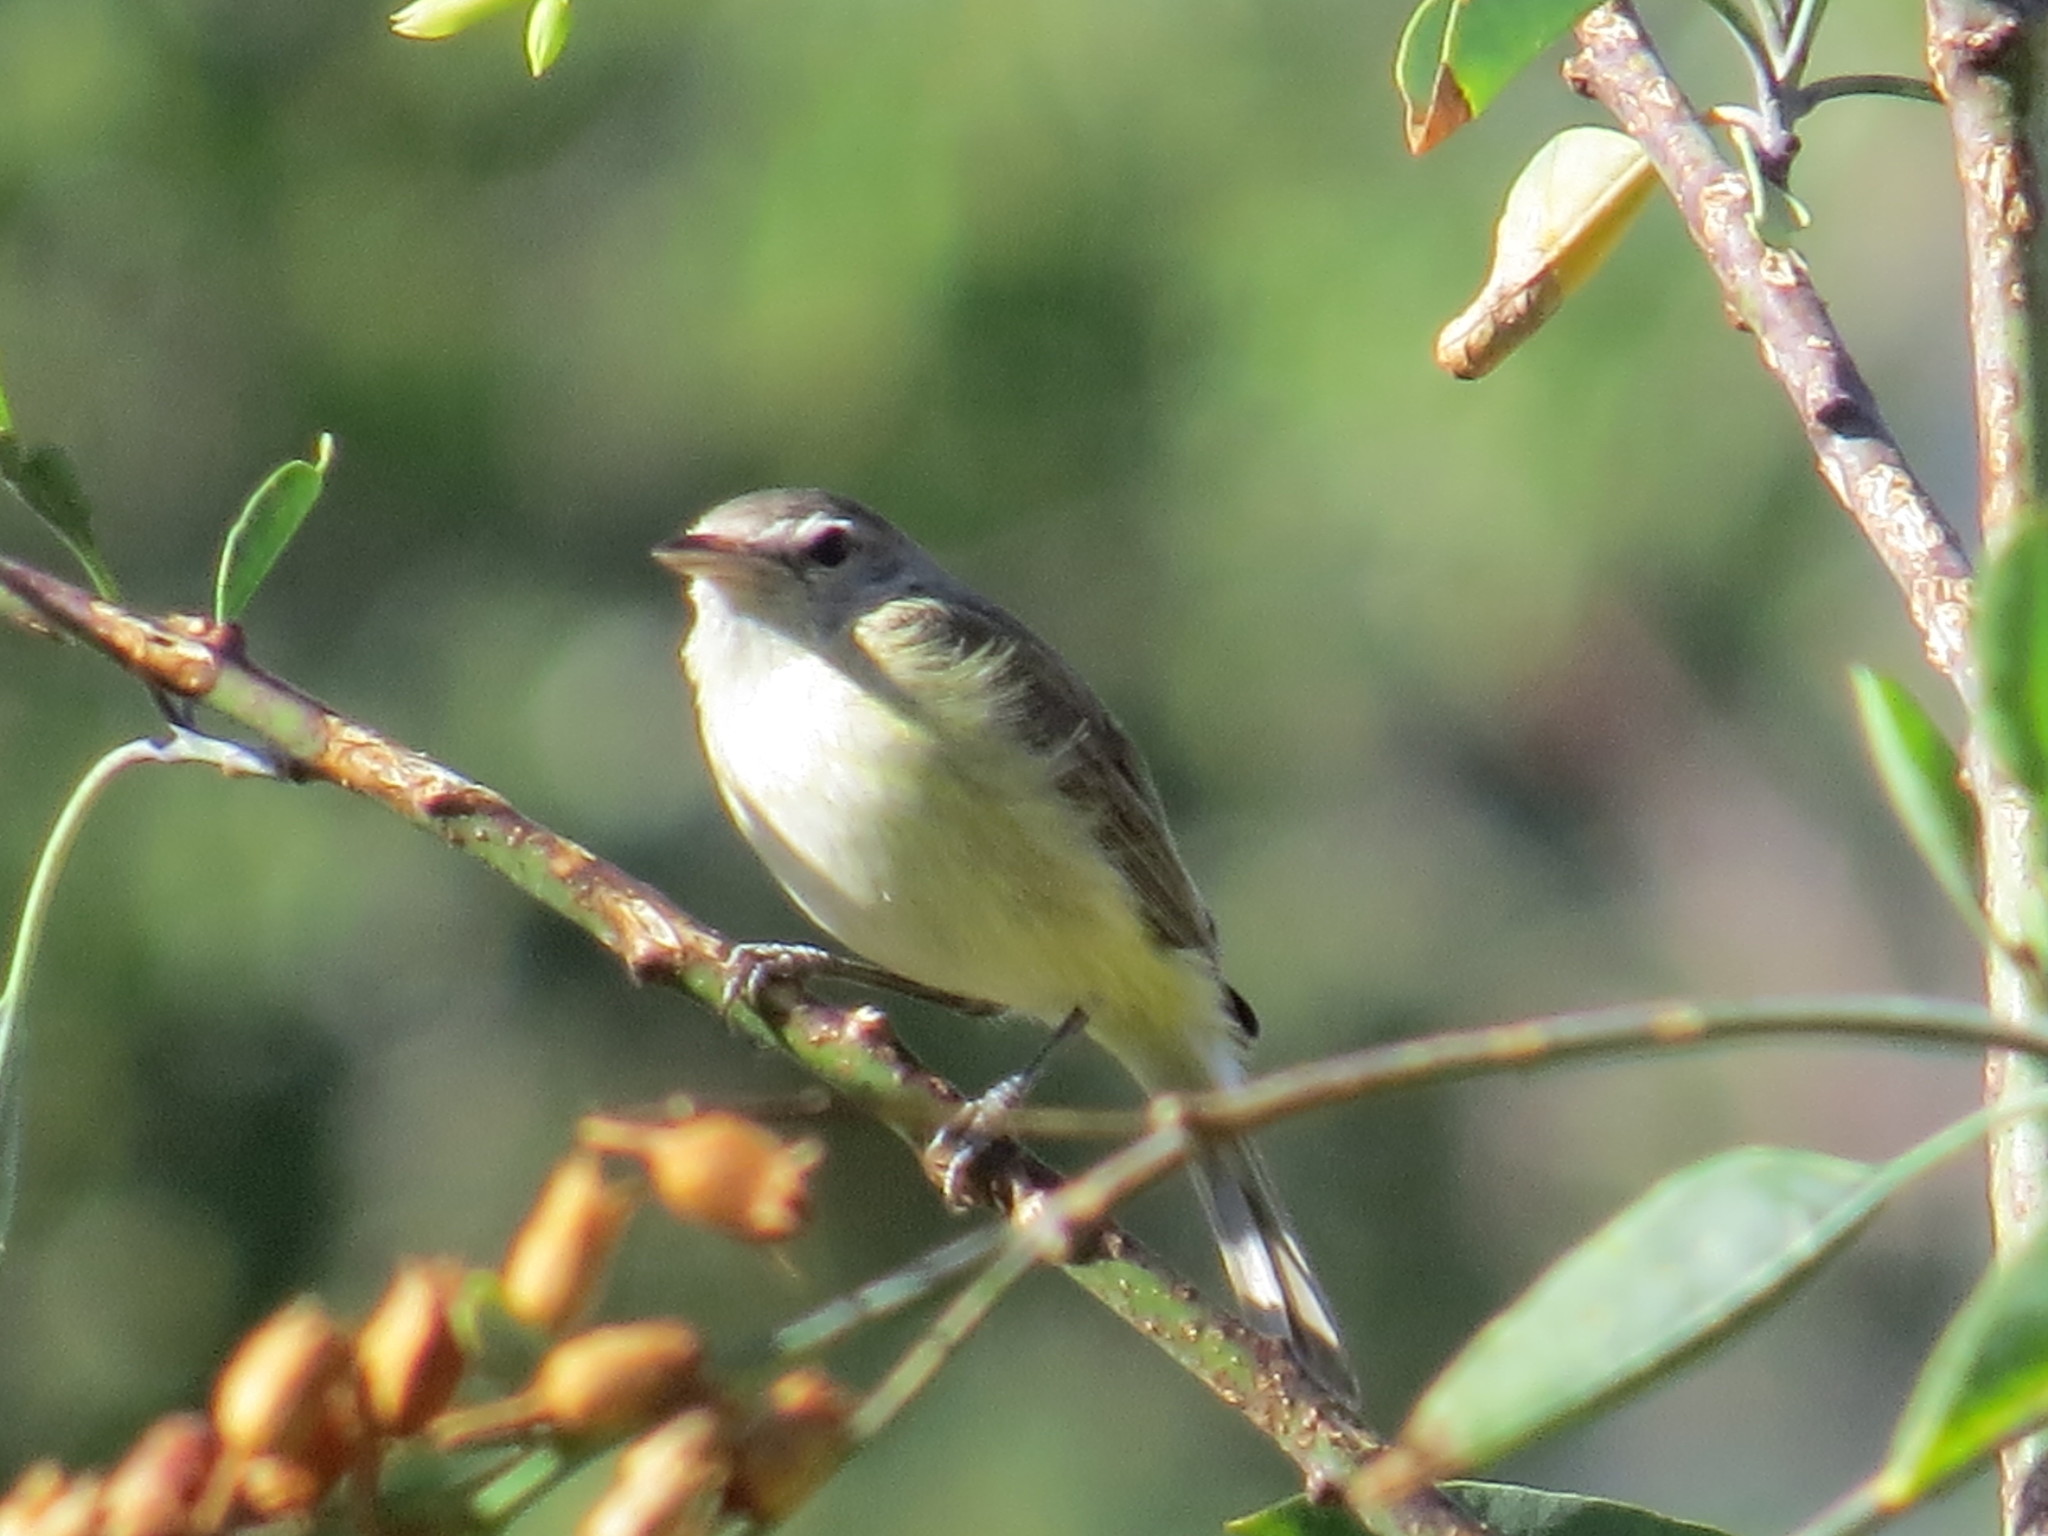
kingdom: Animalia
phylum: Chordata
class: Aves
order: Passeriformes
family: Vireonidae
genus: Vireo
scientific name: Vireo bellii
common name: Bell's vireo
